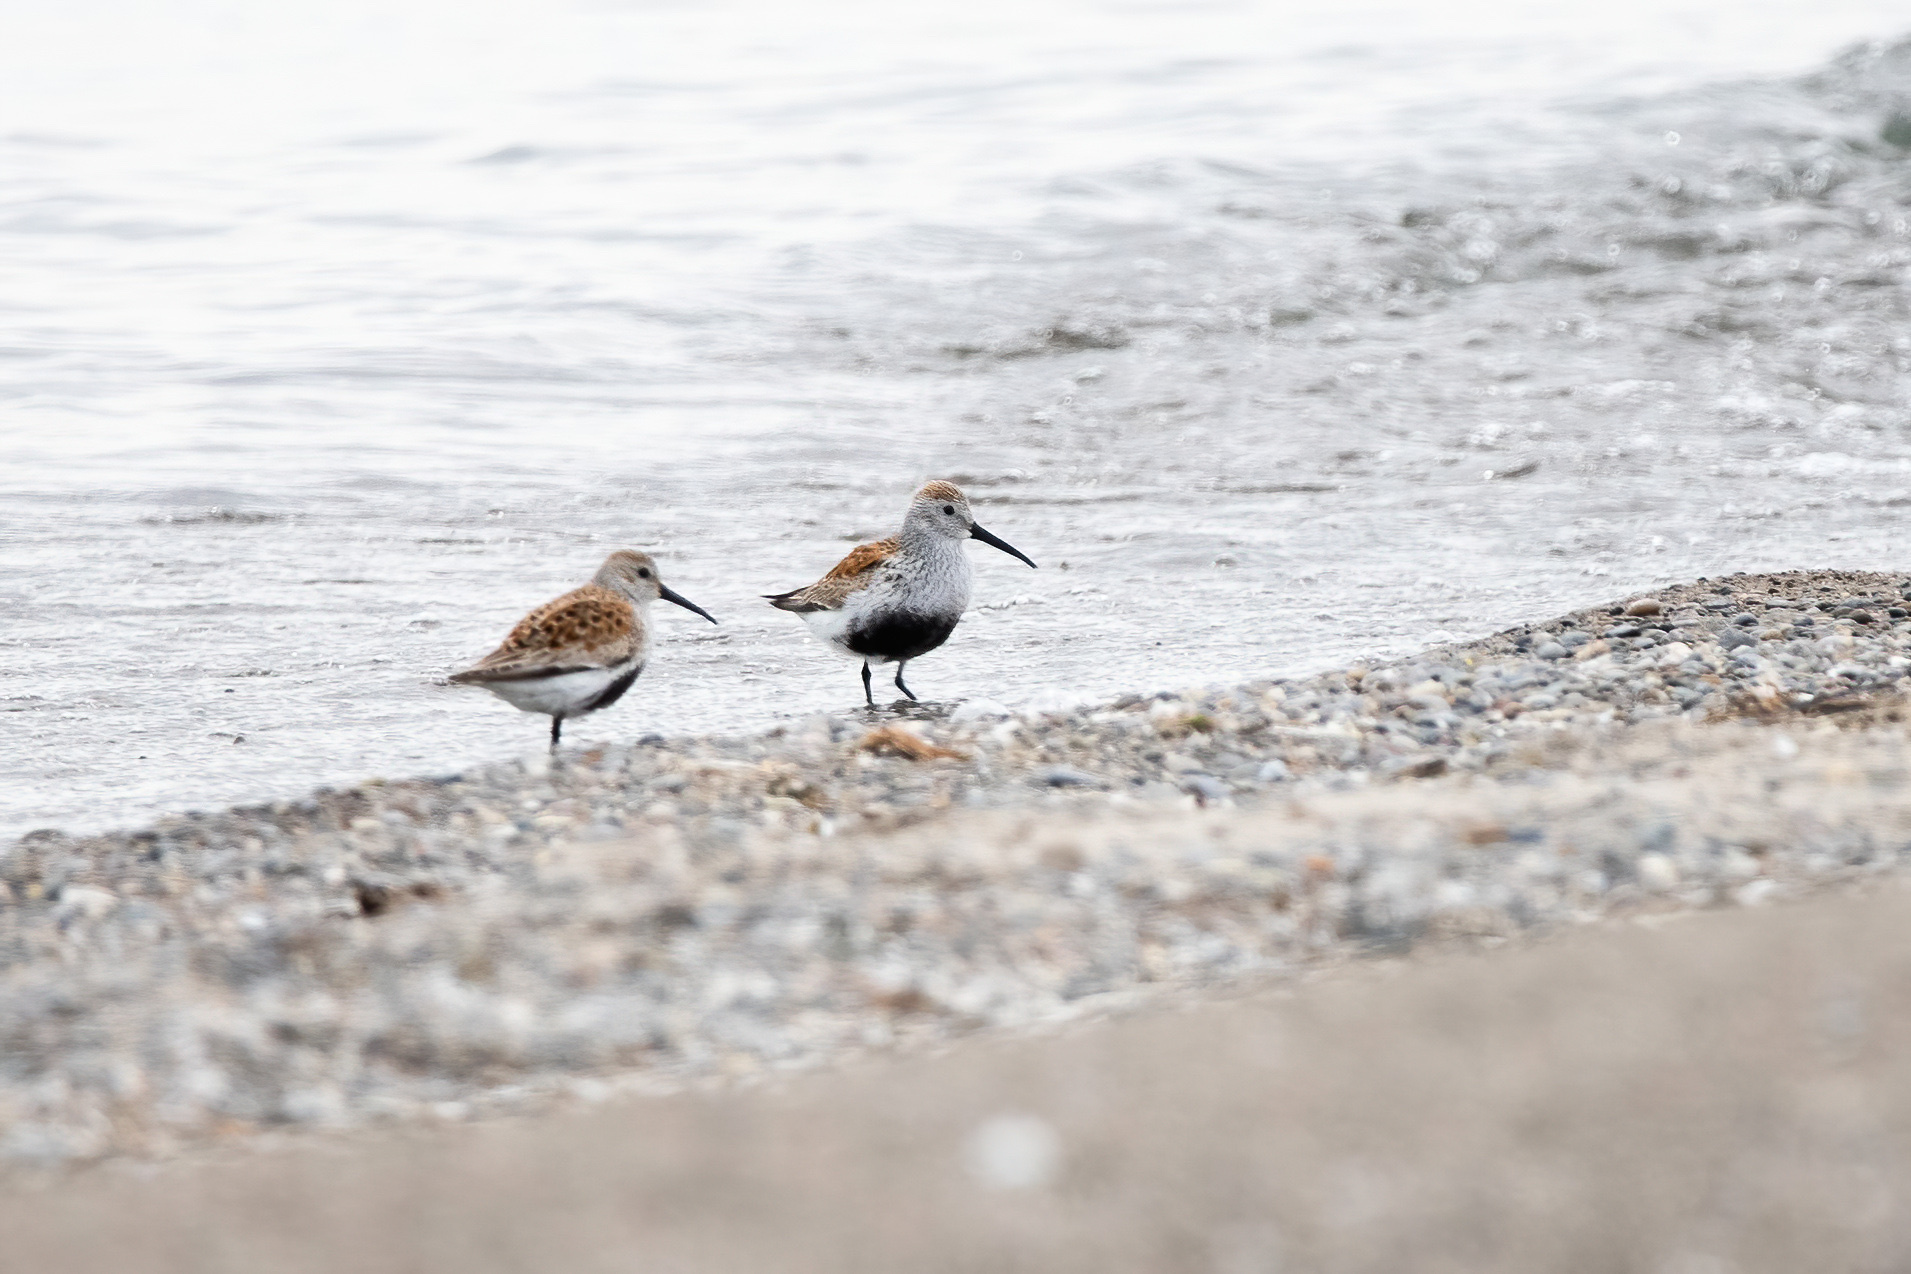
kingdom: Animalia
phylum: Chordata
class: Aves
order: Charadriiformes
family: Scolopacidae
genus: Calidris
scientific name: Calidris alpina
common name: Dunlin
